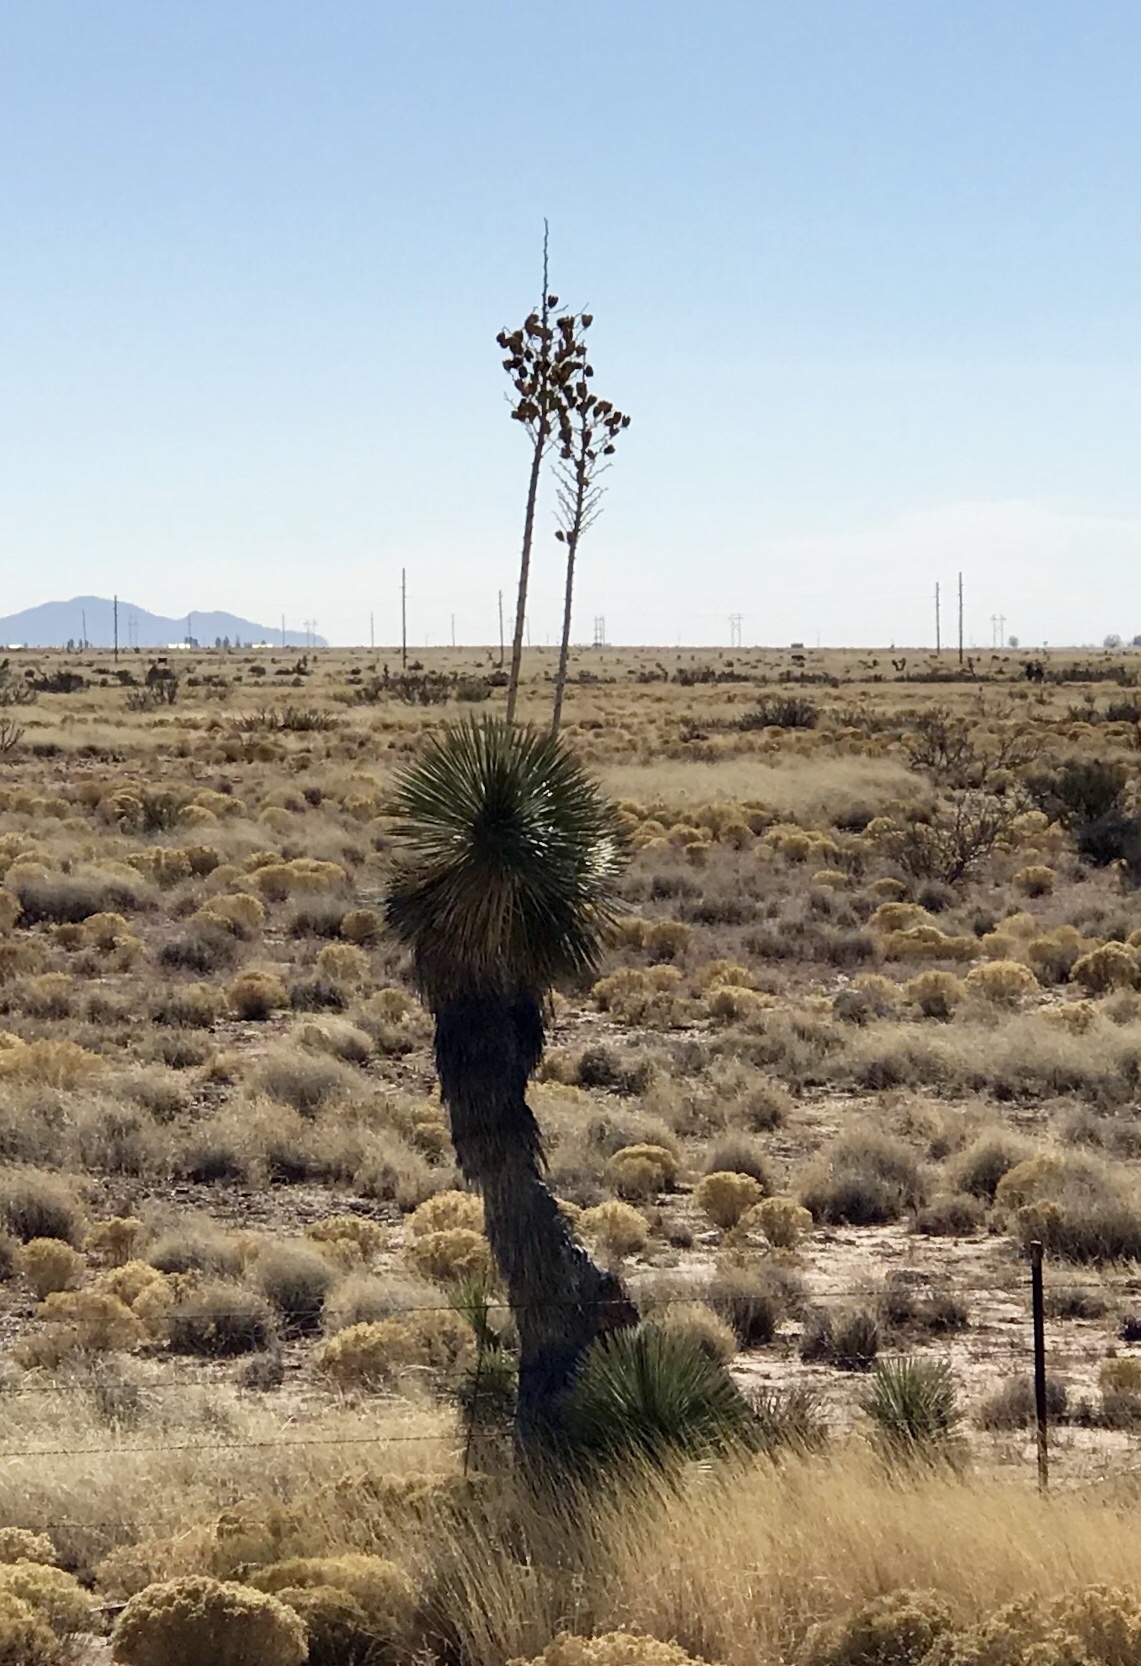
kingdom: Plantae
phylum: Tracheophyta
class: Liliopsida
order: Asparagales
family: Asparagaceae
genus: Yucca
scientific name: Yucca elata
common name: Palmella
